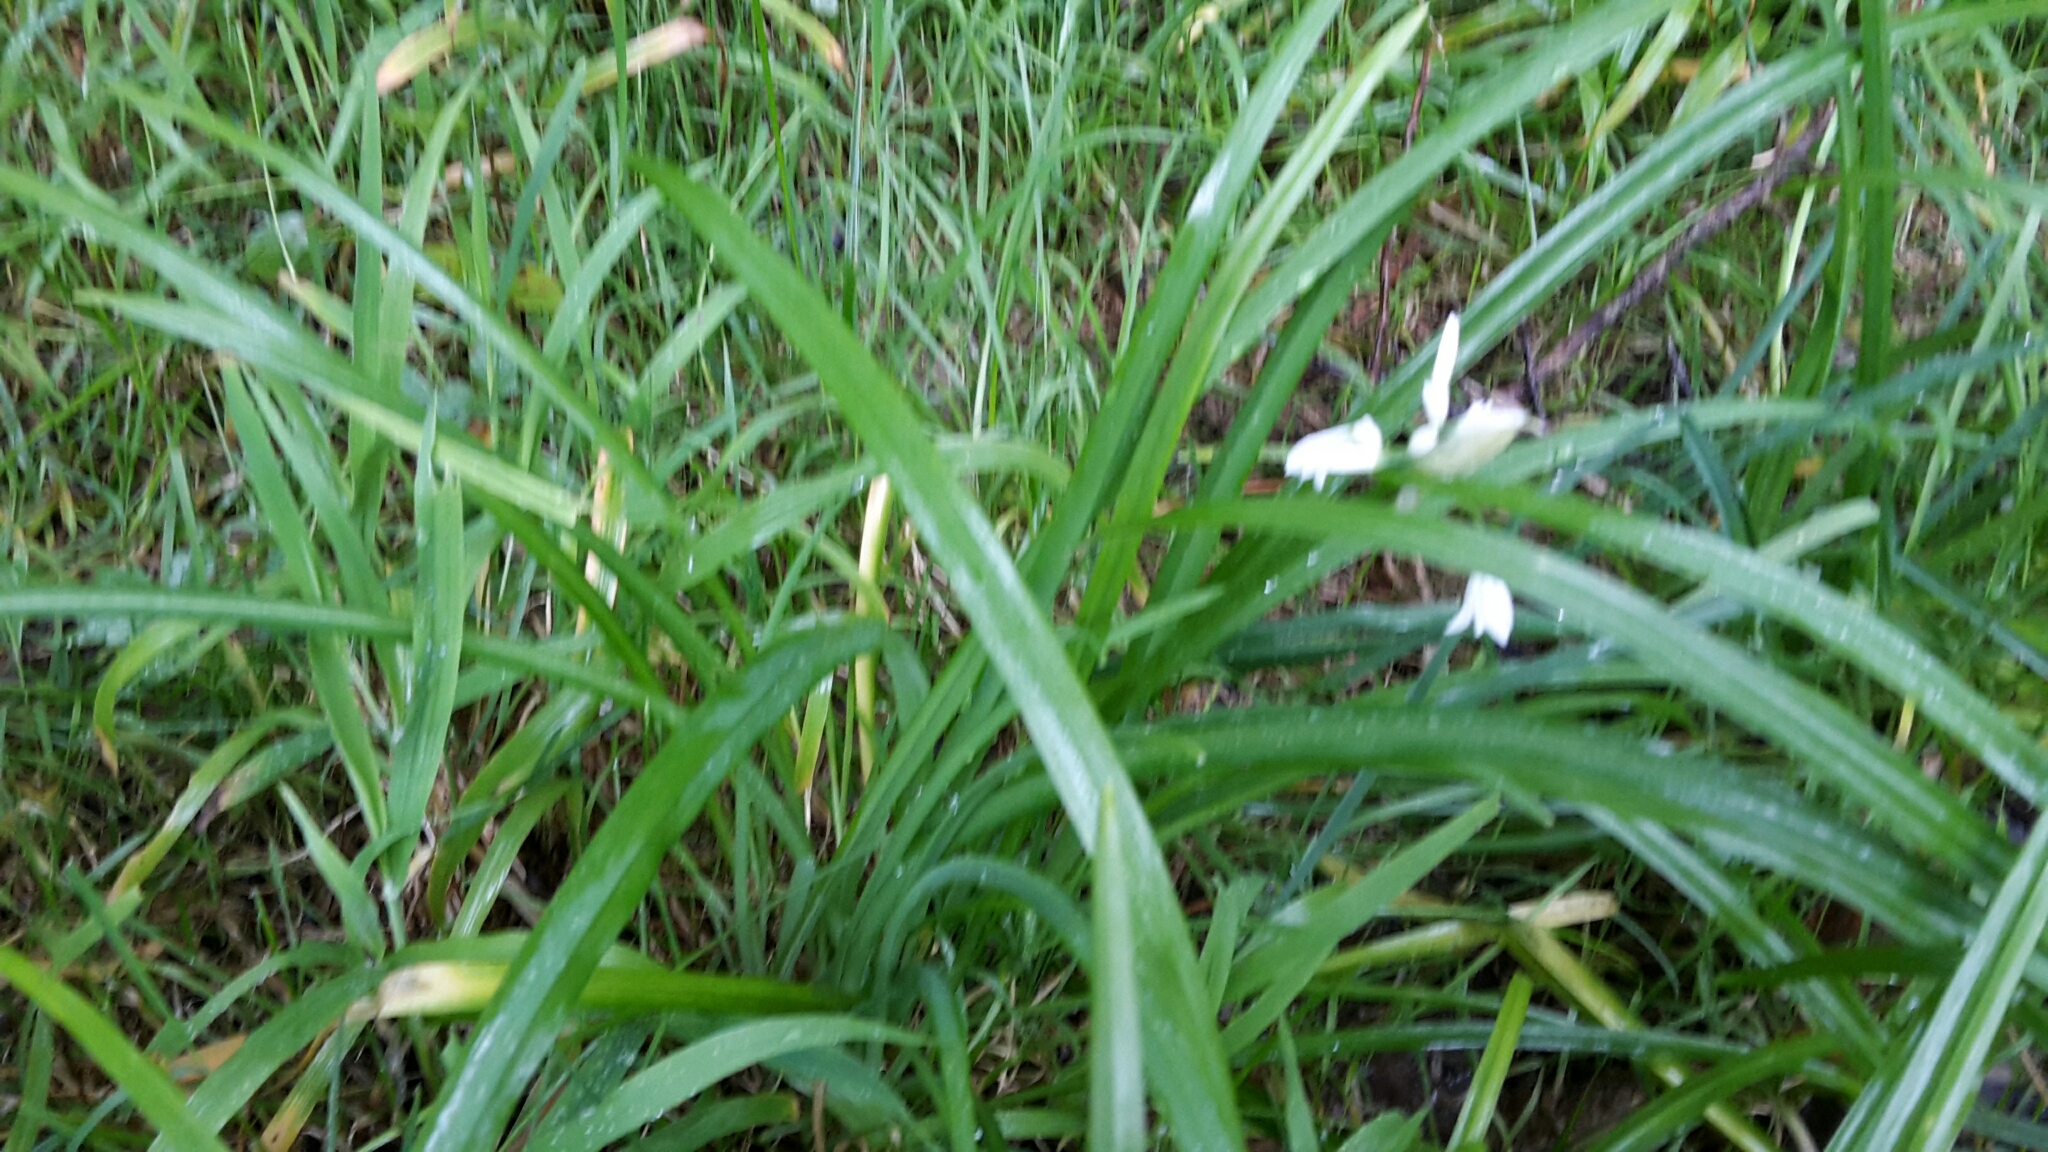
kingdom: Plantae
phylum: Tracheophyta
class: Liliopsida
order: Asparagales
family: Amaryllidaceae
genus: Allium
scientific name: Allium triquetrum
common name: Three-cornered garlic
